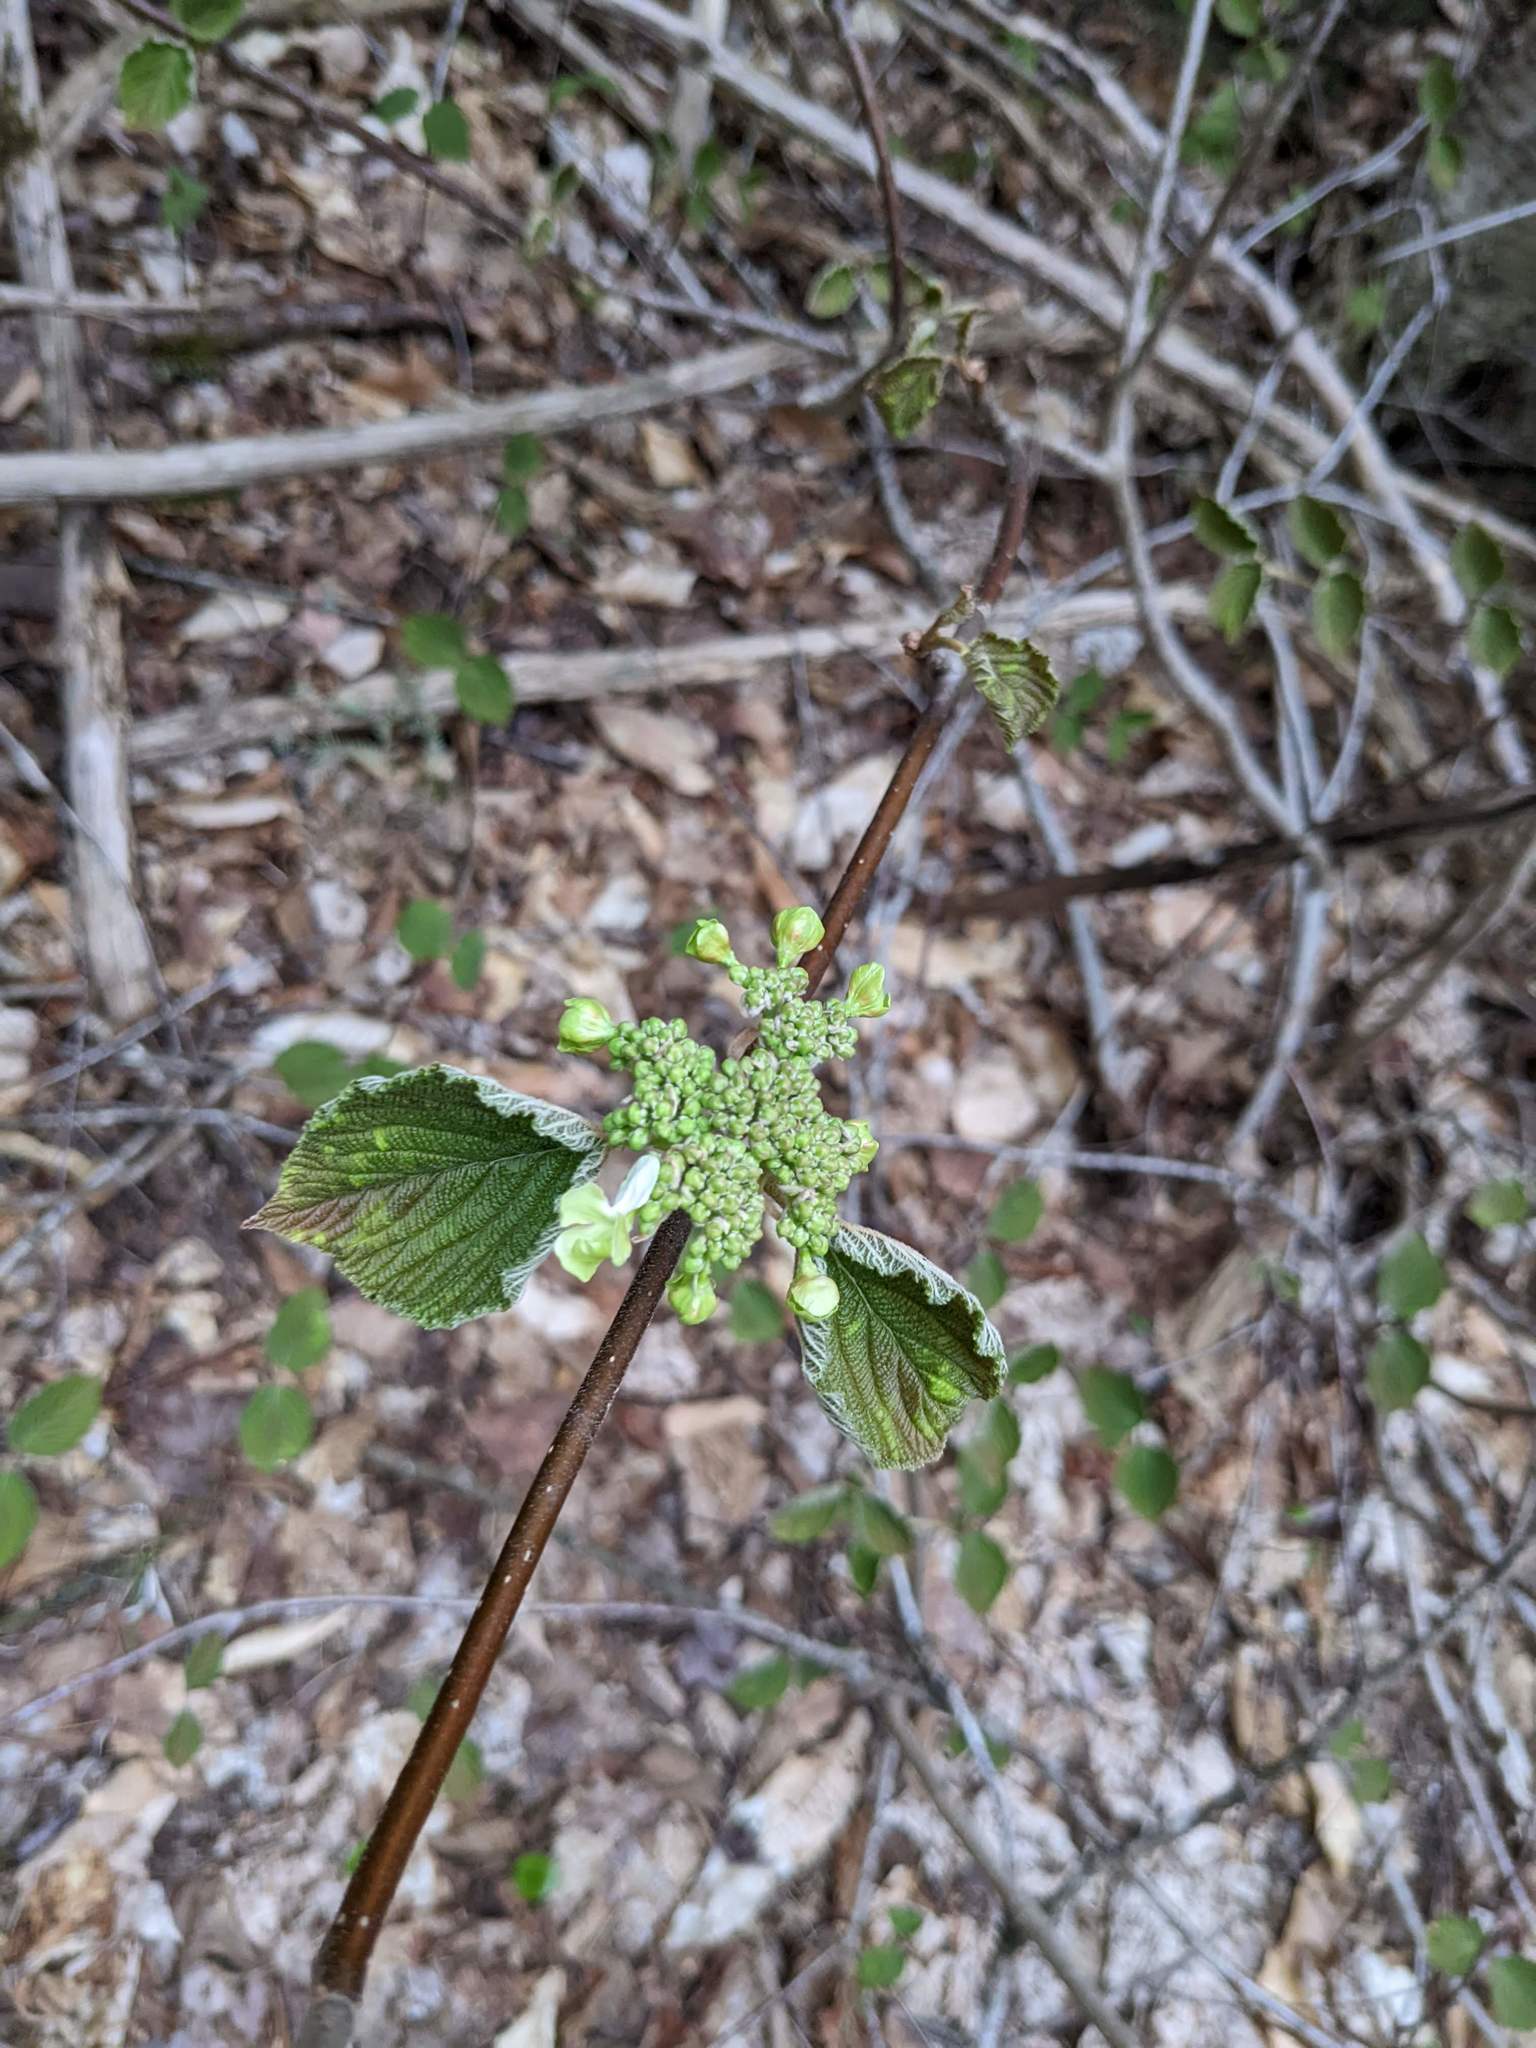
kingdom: Plantae
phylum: Tracheophyta
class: Magnoliopsida
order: Dipsacales
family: Viburnaceae
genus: Viburnum
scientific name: Viburnum lantanoides
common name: Hobblebush
